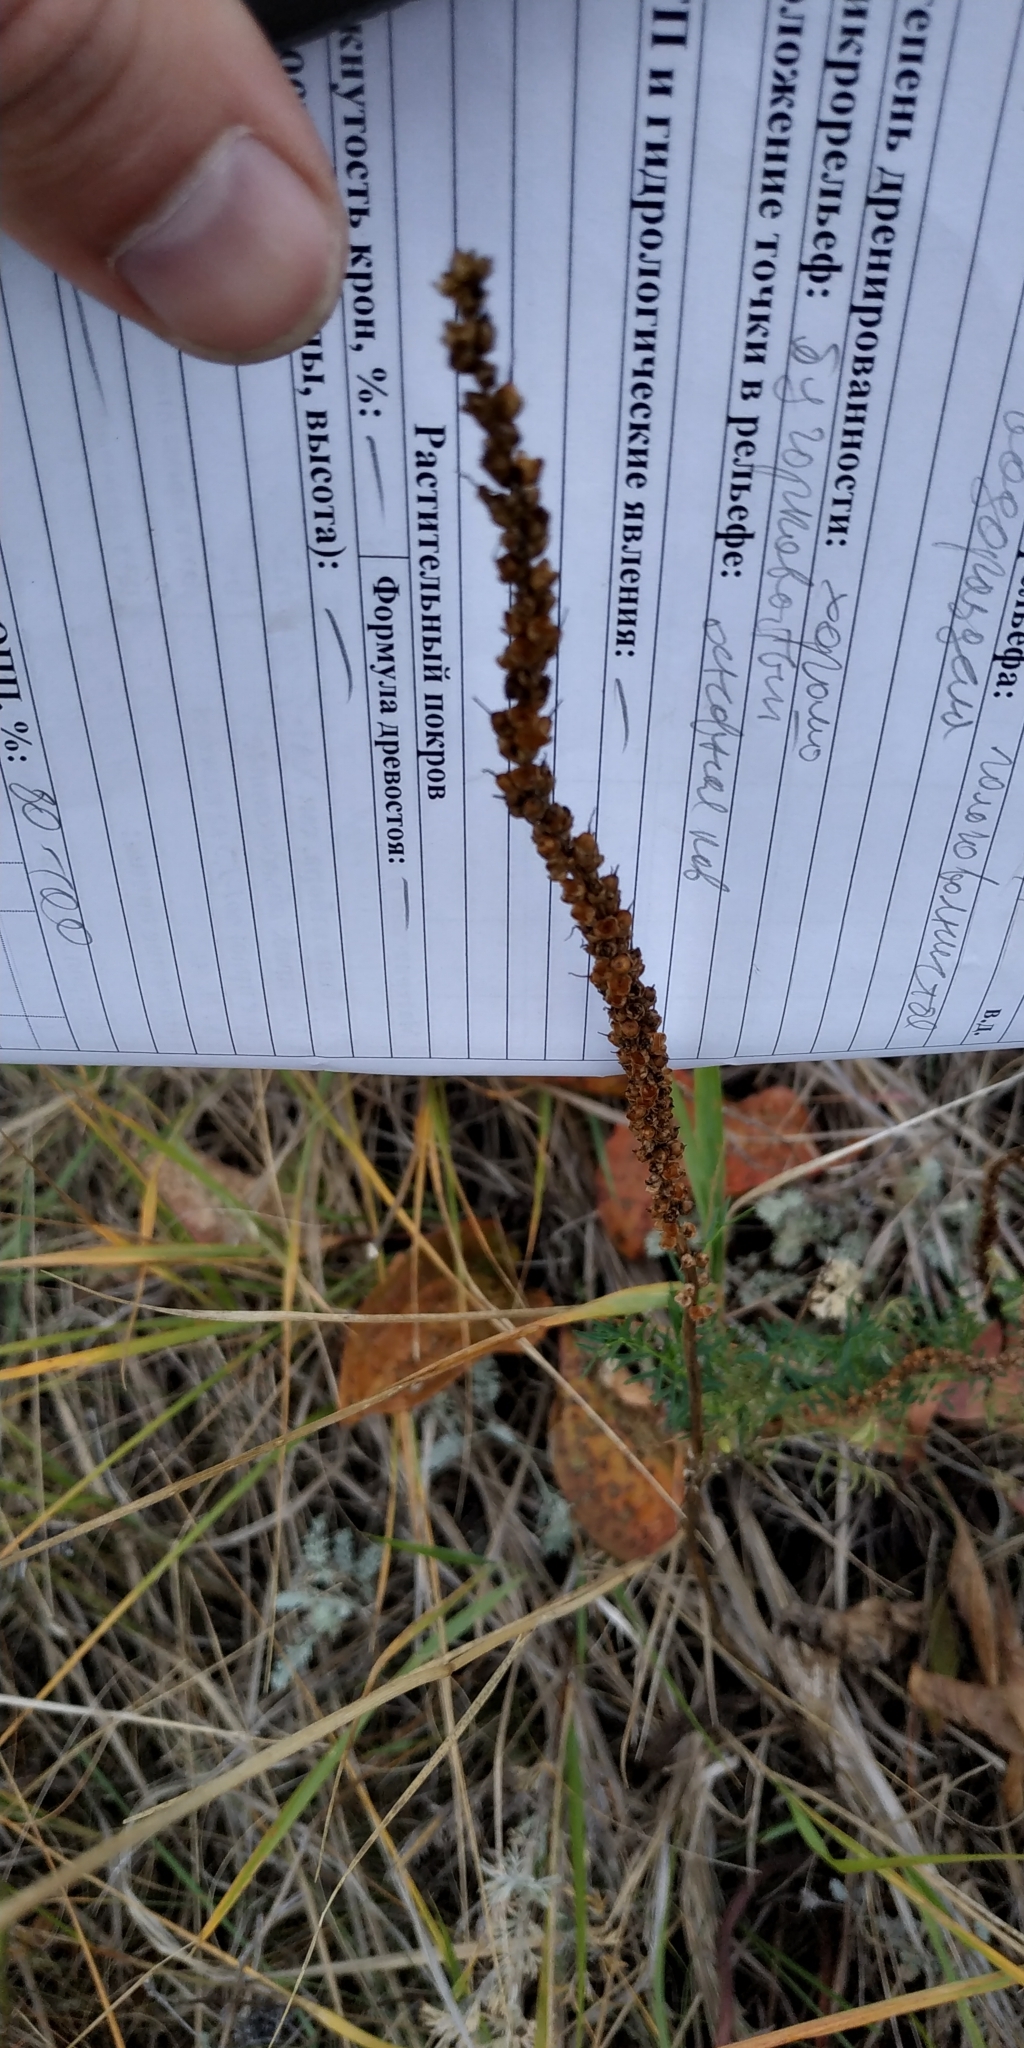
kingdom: Plantae
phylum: Tracheophyta
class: Magnoliopsida
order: Lamiales
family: Plantaginaceae
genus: Plantago
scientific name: Plantago cornuti
